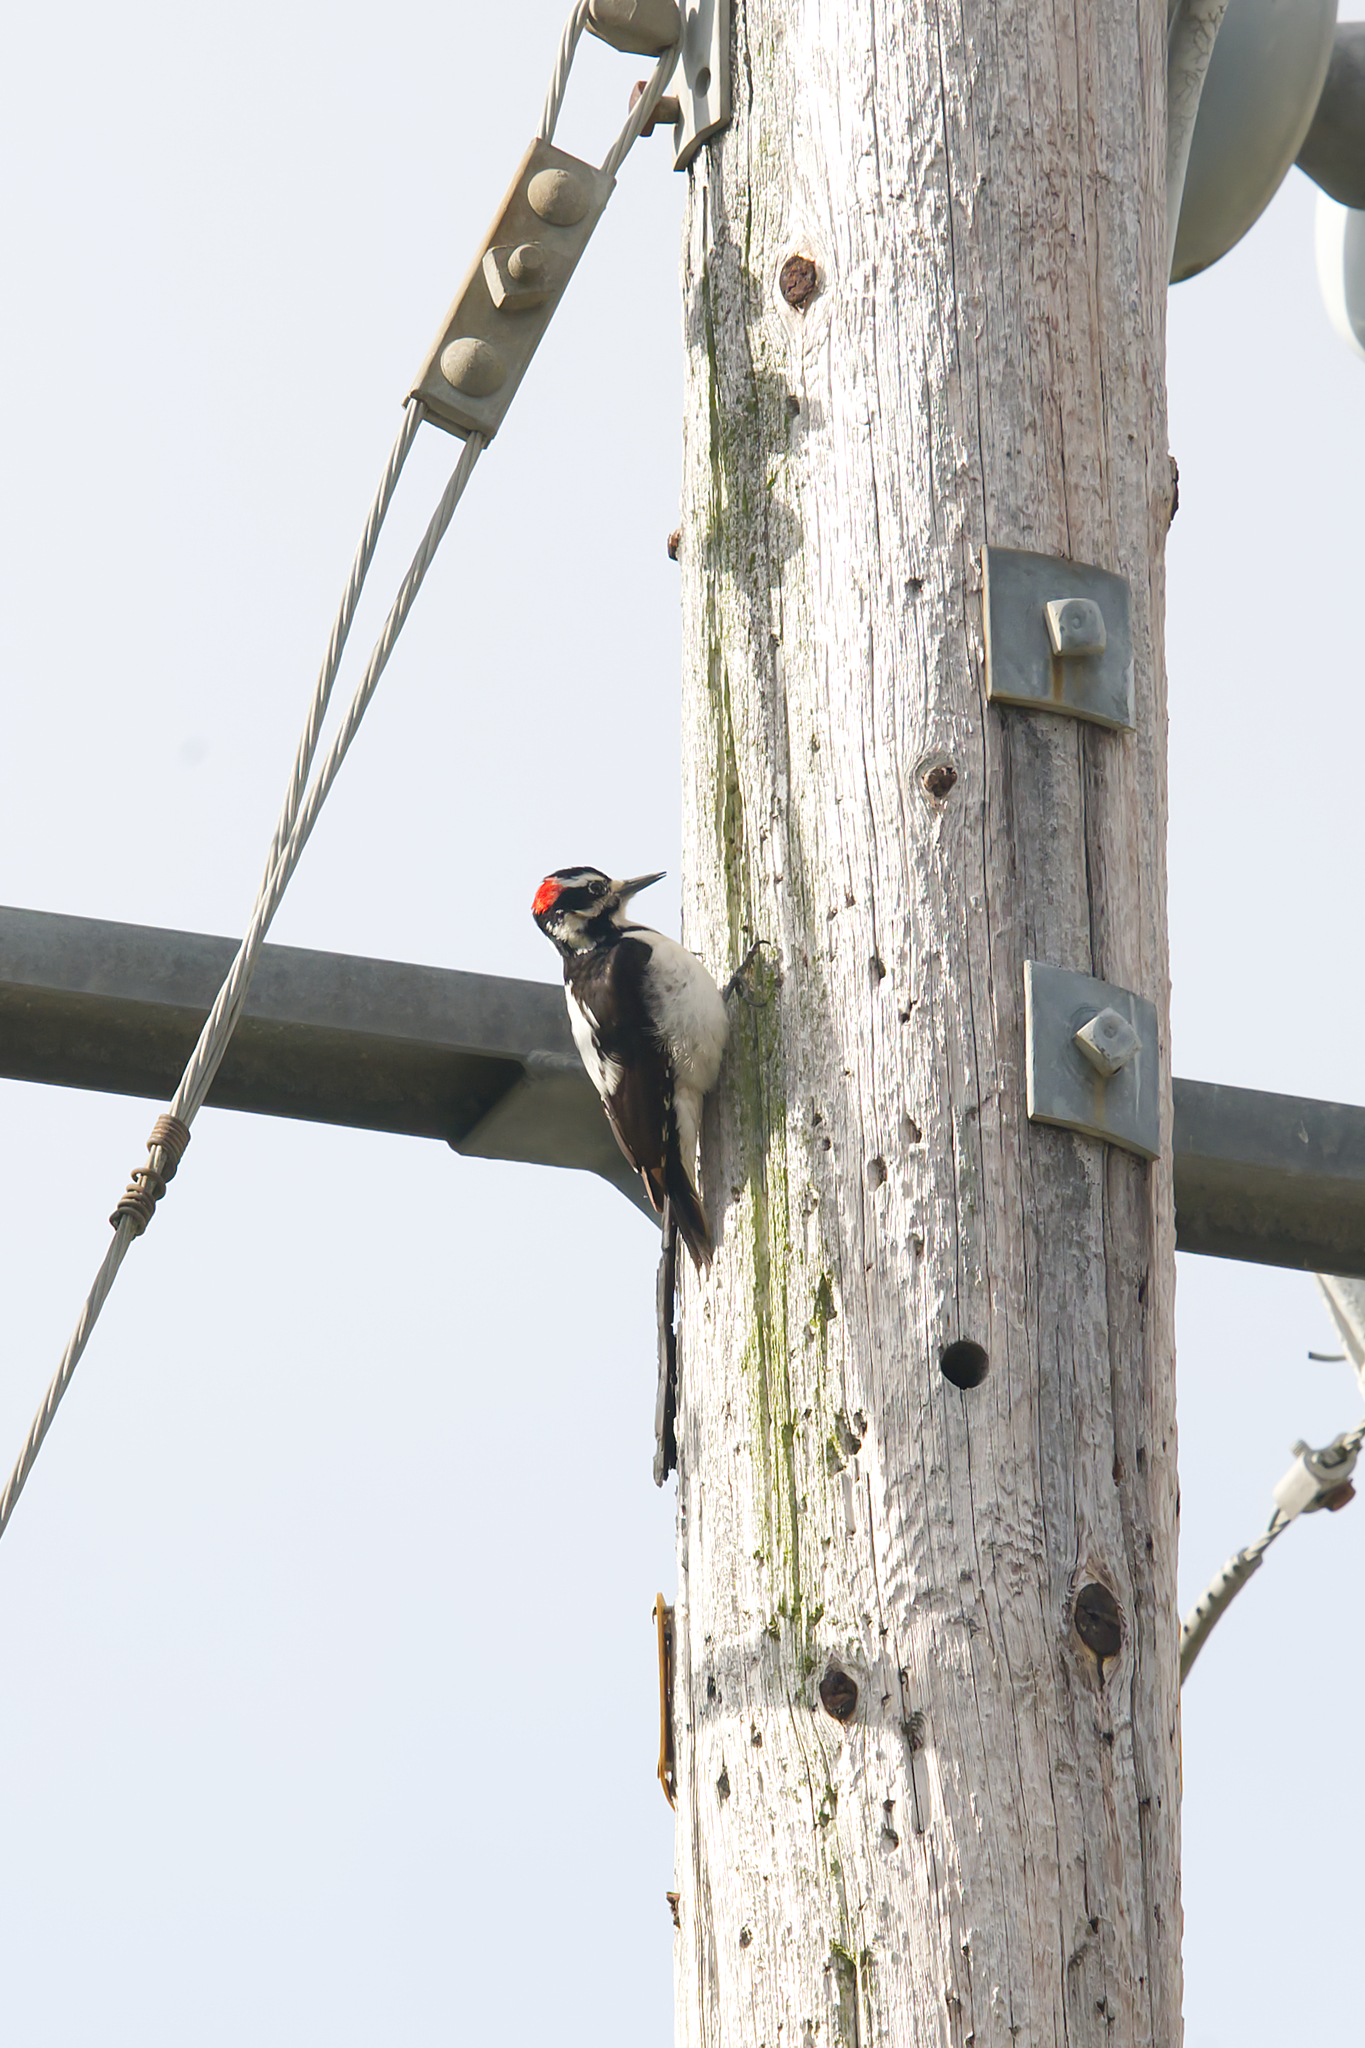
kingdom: Animalia
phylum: Chordata
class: Aves
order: Piciformes
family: Picidae
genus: Leuconotopicus
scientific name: Leuconotopicus villosus
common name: Hairy woodpecker
